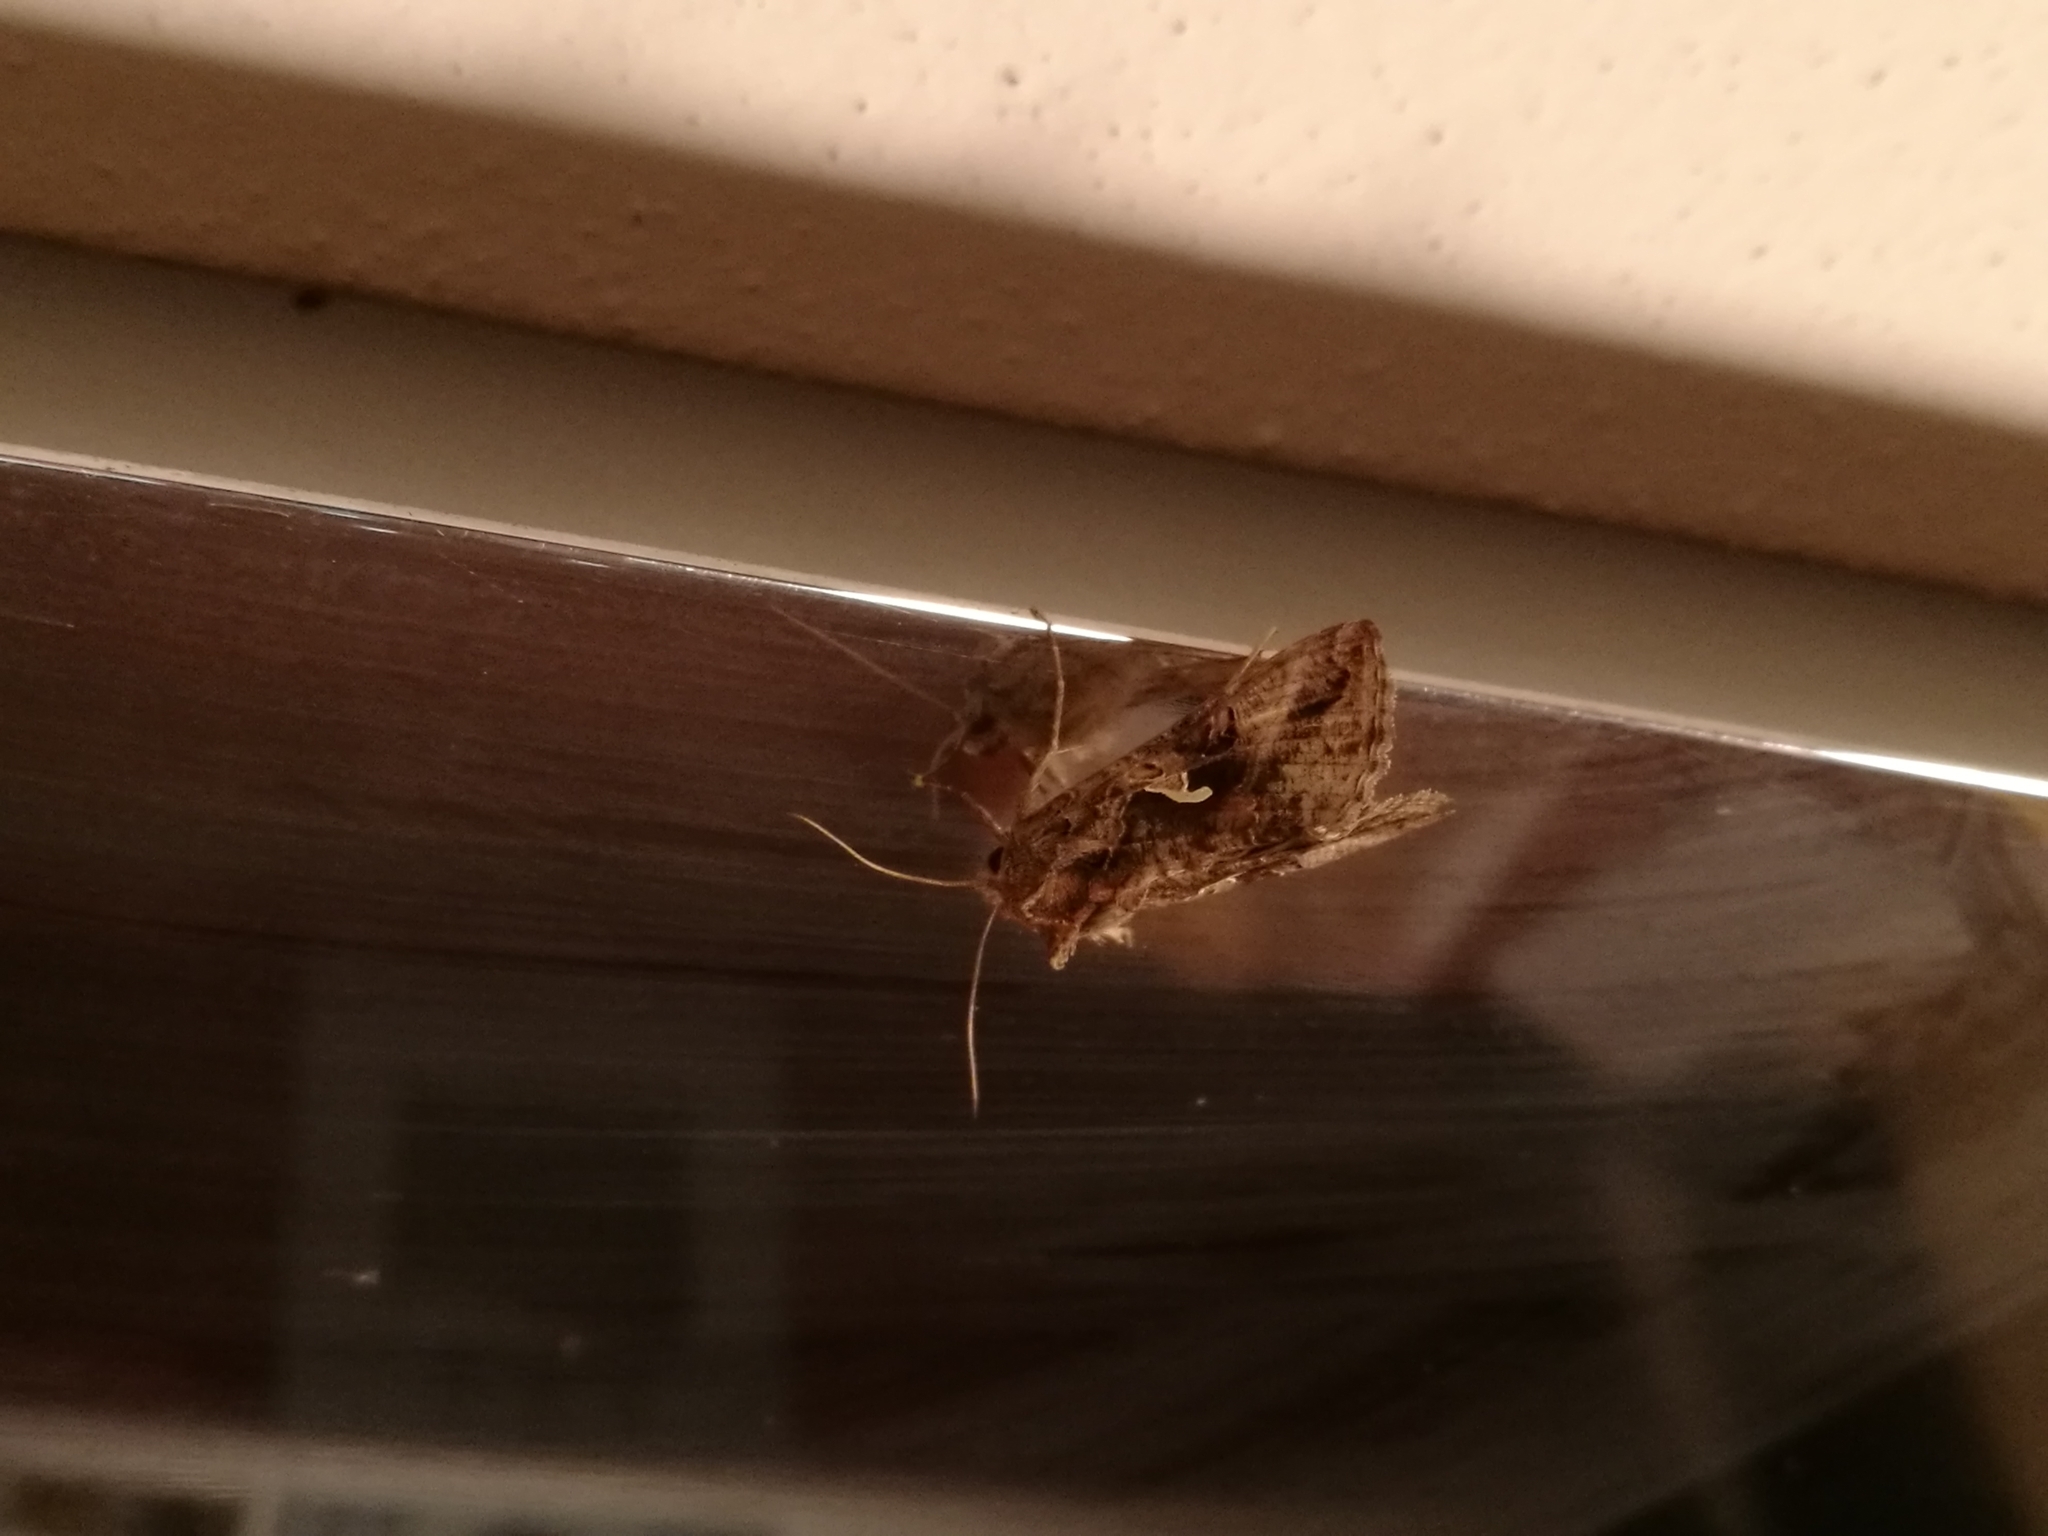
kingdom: Animalia
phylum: Arthropoda
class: Insecta
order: Lepidoptera
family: Noctuidae
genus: Autographa
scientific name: Autographa gamma
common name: Silver y
